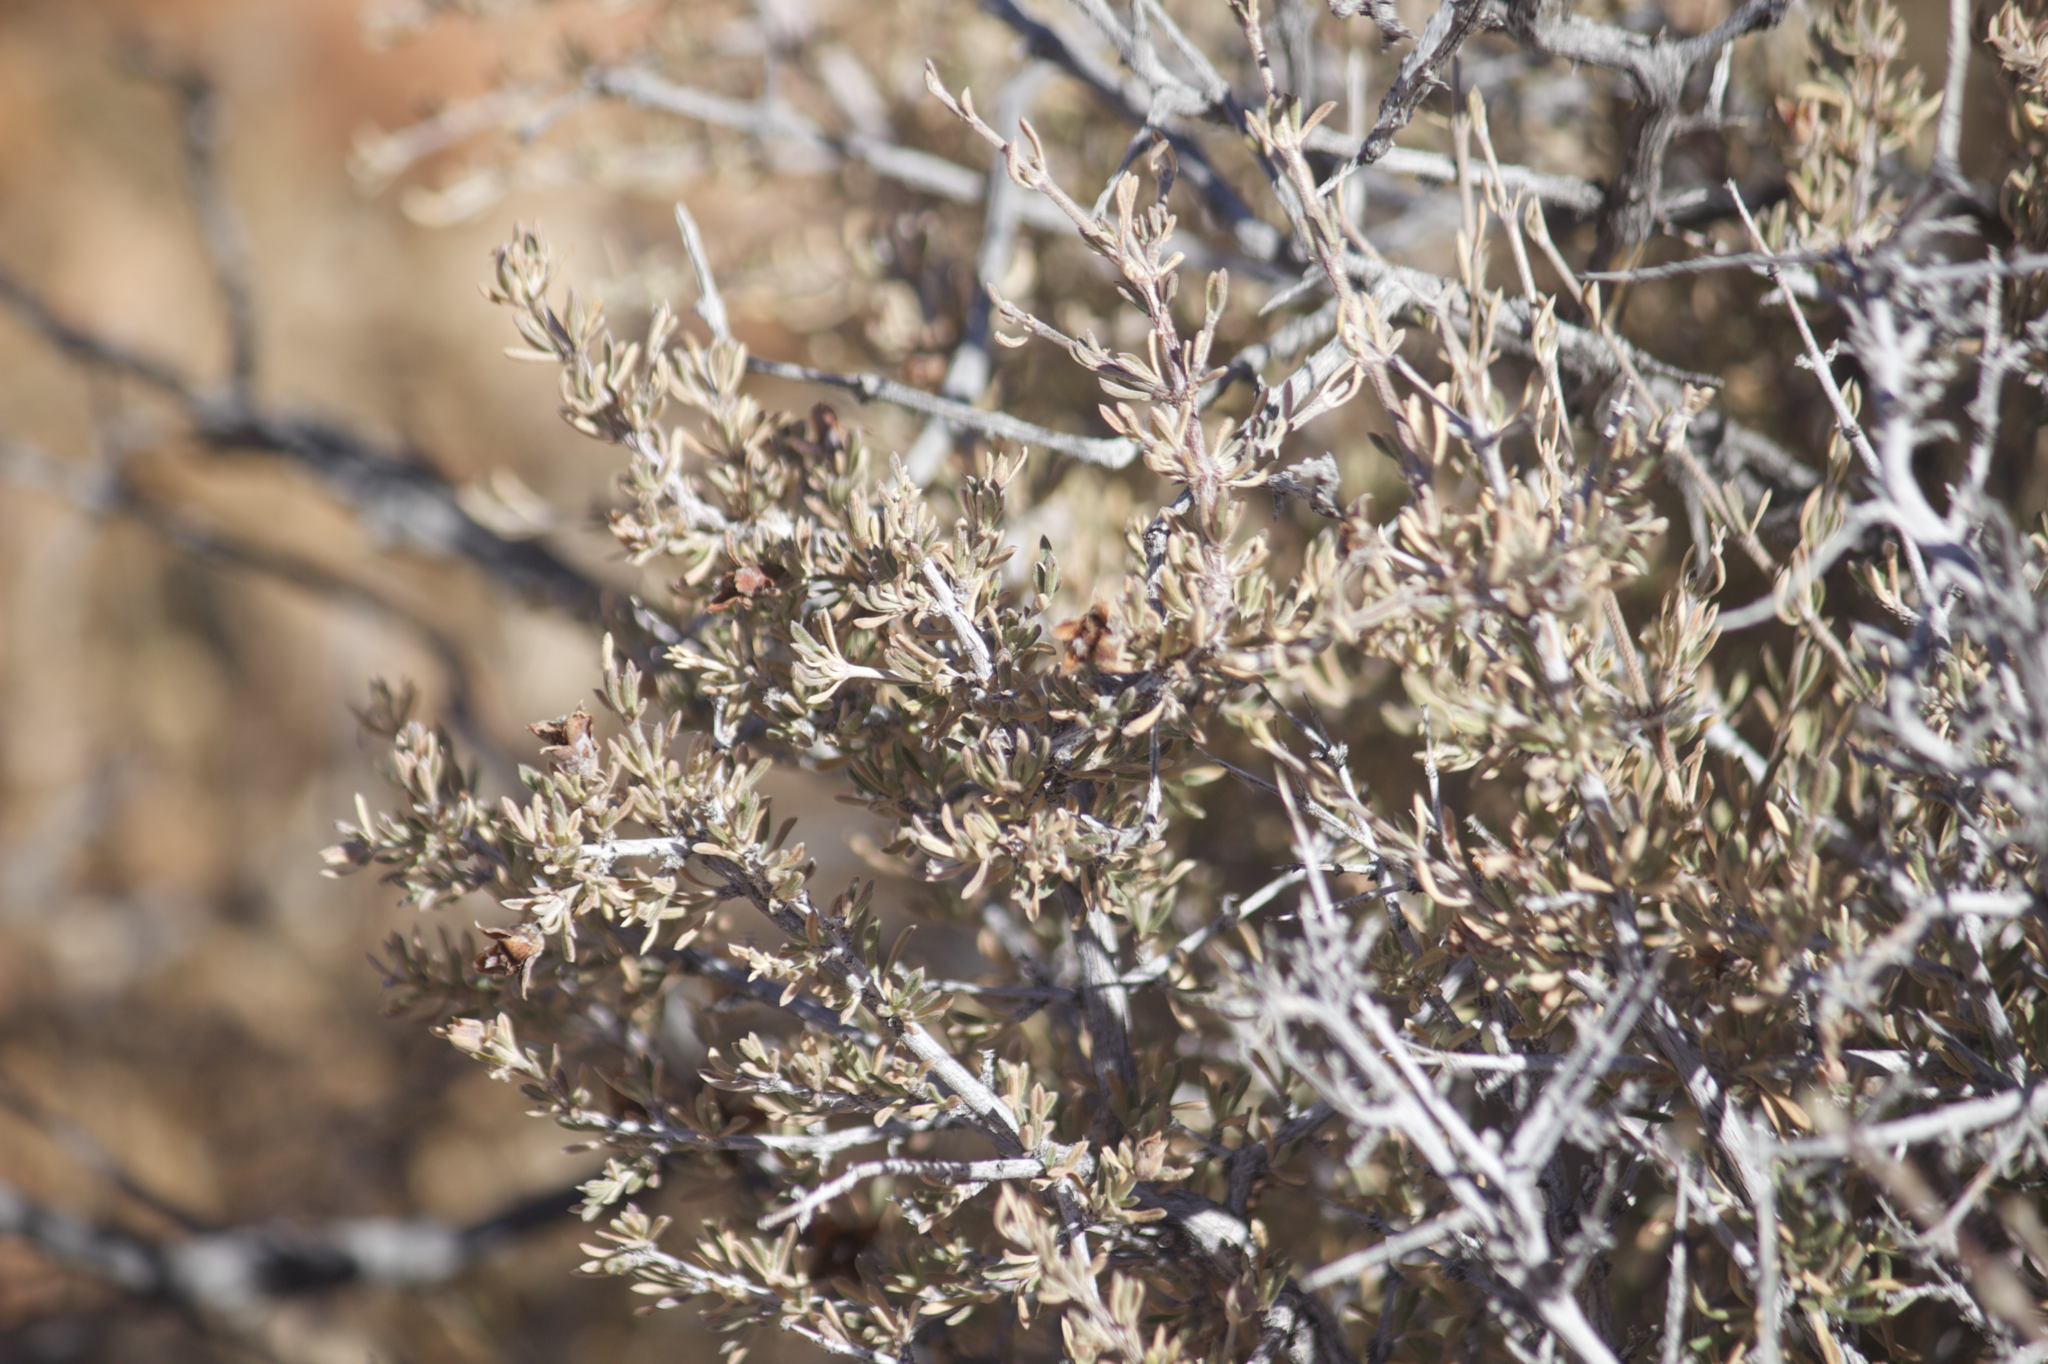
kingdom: Plantae
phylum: Tracheophyta
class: Magnoliopsida
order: Rosales
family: Rosaceae
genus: Coleogyne
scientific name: Coleogyne ramosissima
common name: Blackbrush
